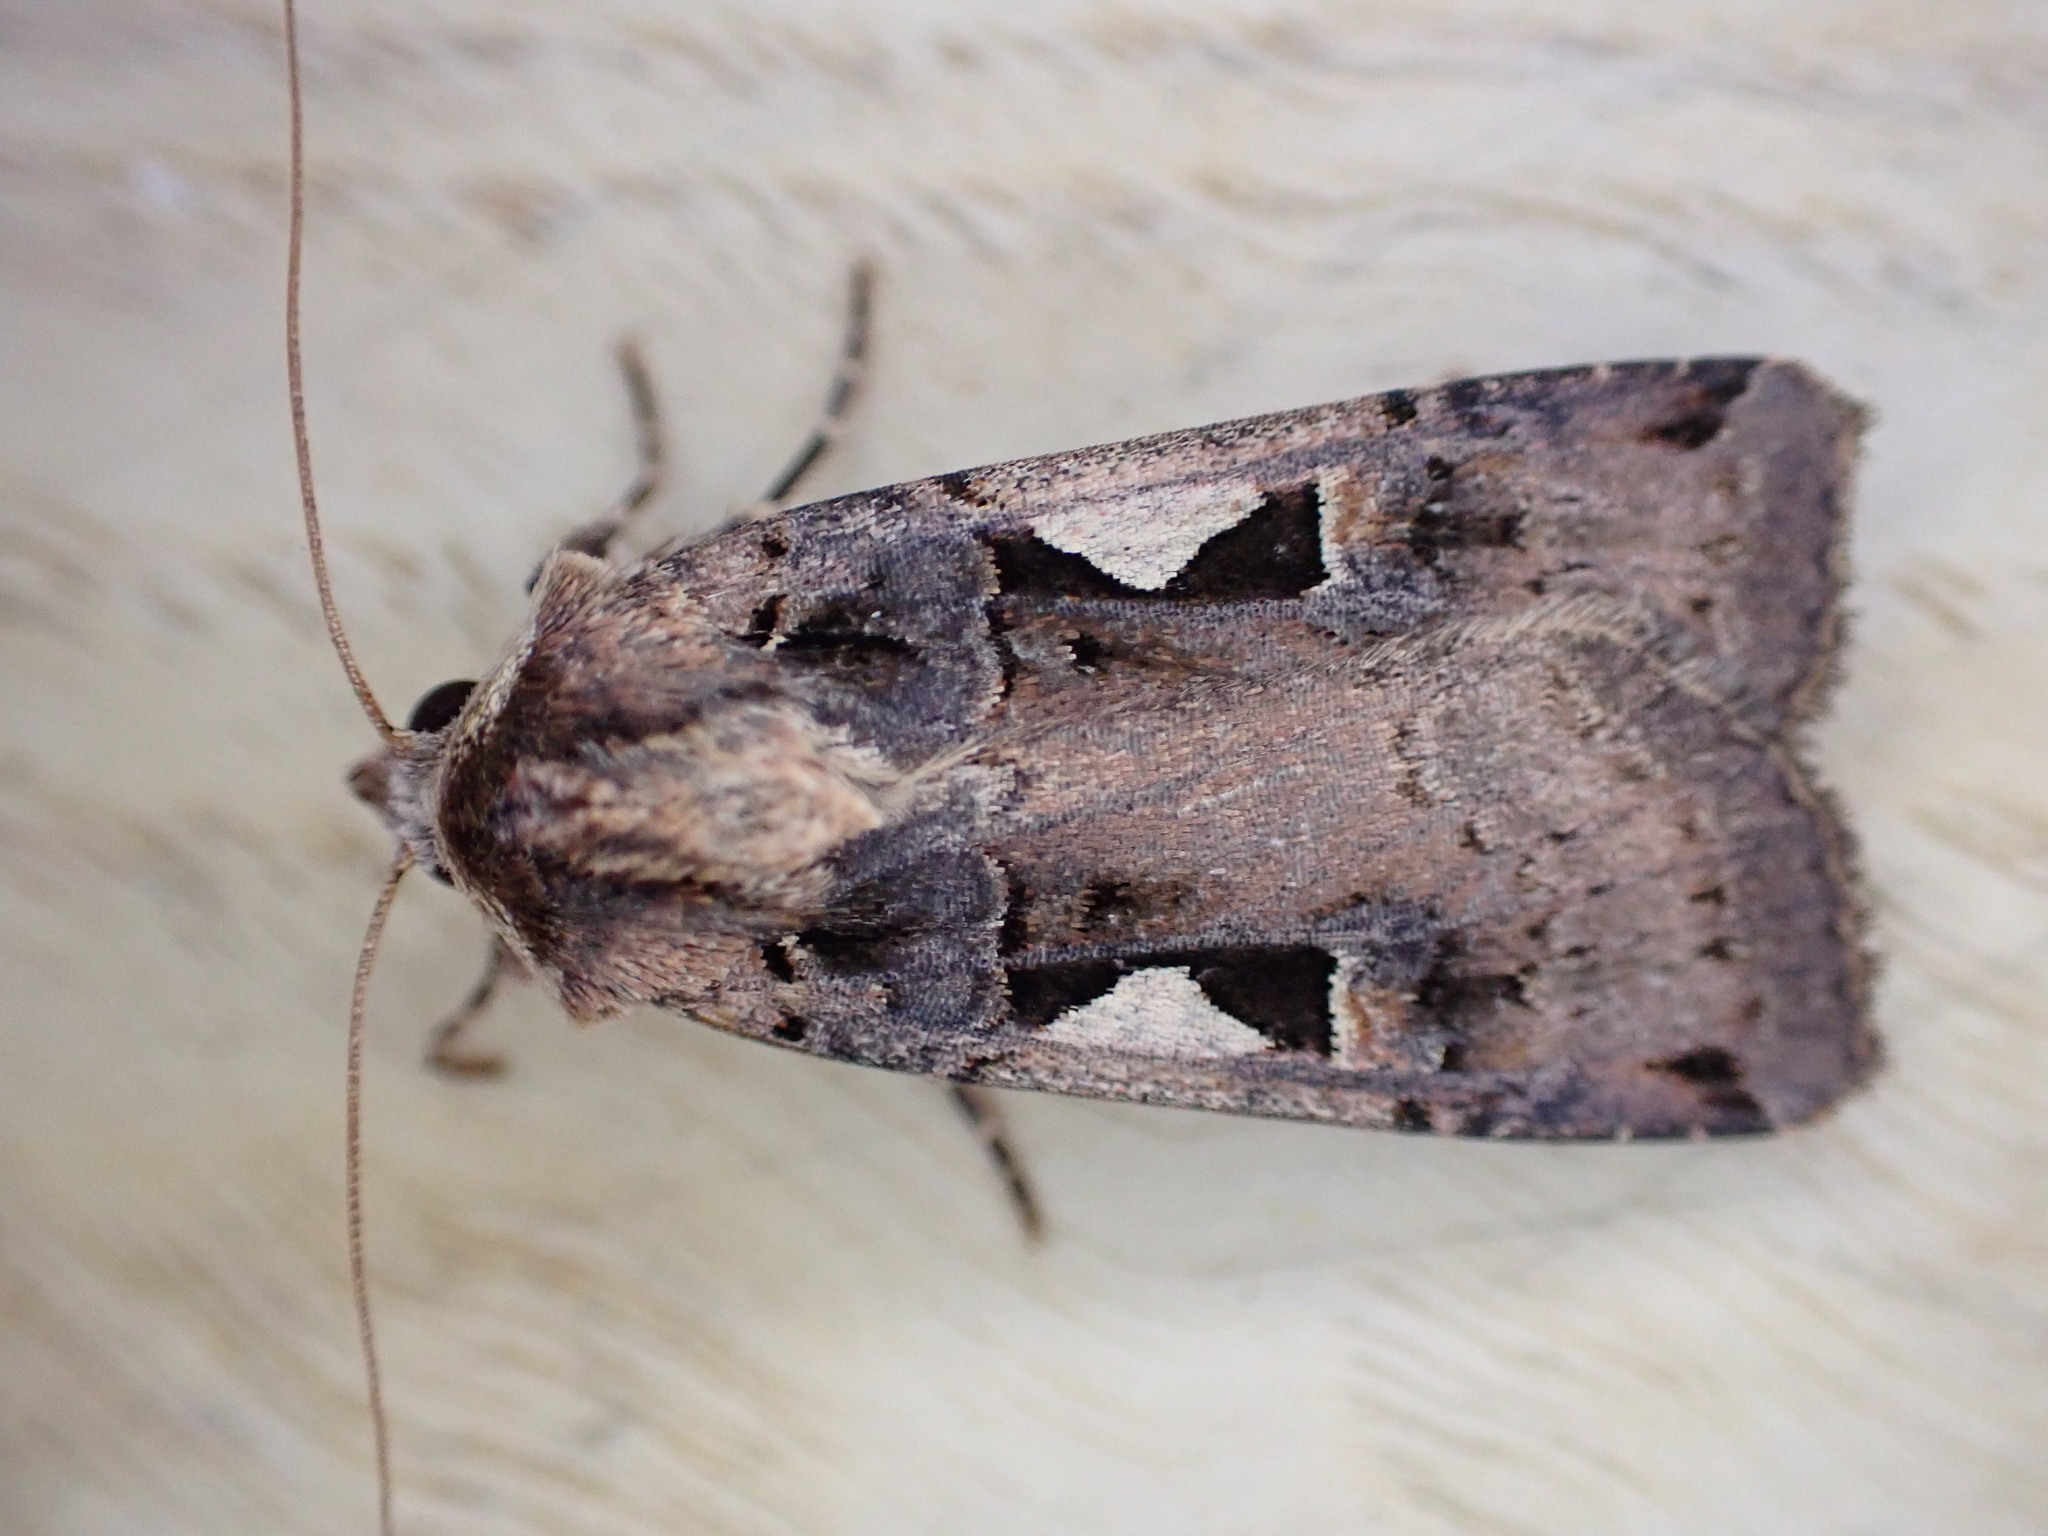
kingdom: Animalia
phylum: Arthropoda
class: Insecta
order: Lepidoptera
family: Noctuidae
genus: Xestia
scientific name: Xestia c-nigrum
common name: Setaceous hebrew character
